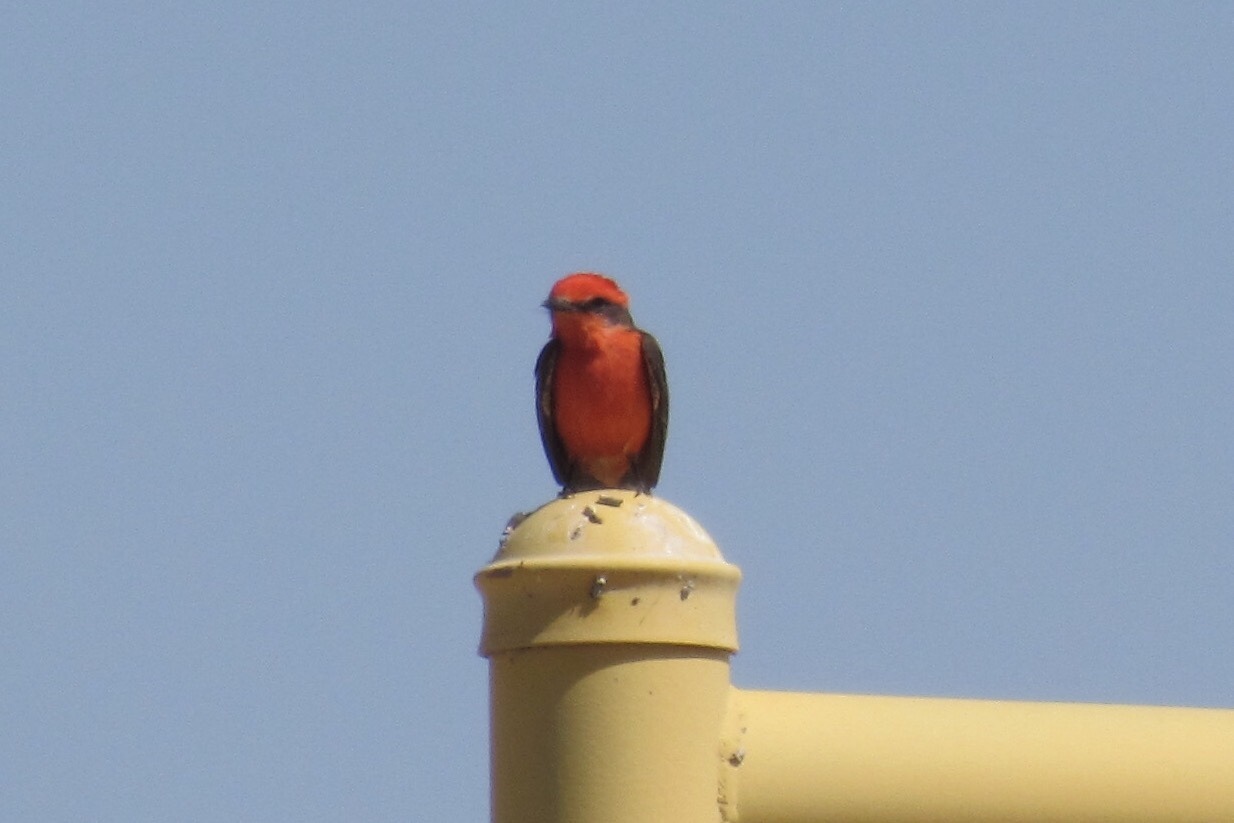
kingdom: Animalia
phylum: Chordata
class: Aves
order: Passeriformes
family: Tyrannidae
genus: Pyrocephalus
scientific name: Pyrocephalus rubinus
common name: Vermilion flycatcher
